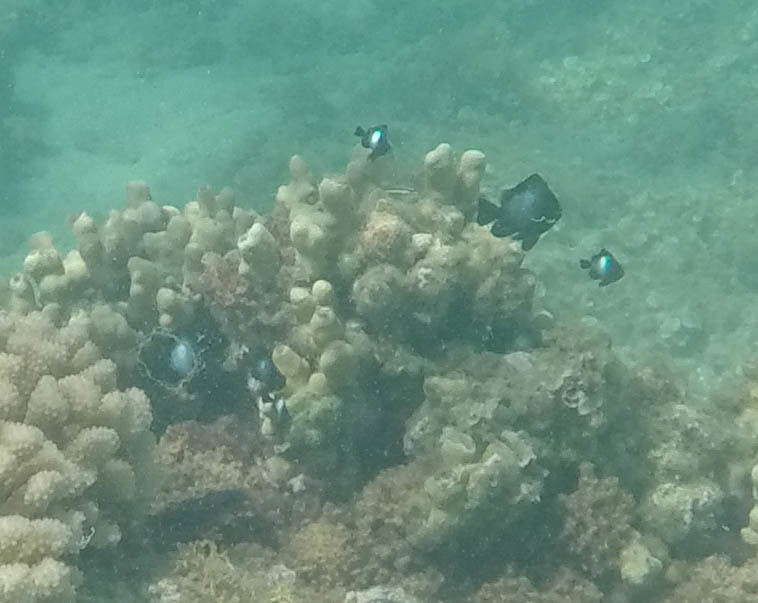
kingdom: Animalia
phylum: Chordata
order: Perciformes
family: Pomacentridae
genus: Dascyllus
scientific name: Dascyllus albisella
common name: Hawaiian dascyllus
